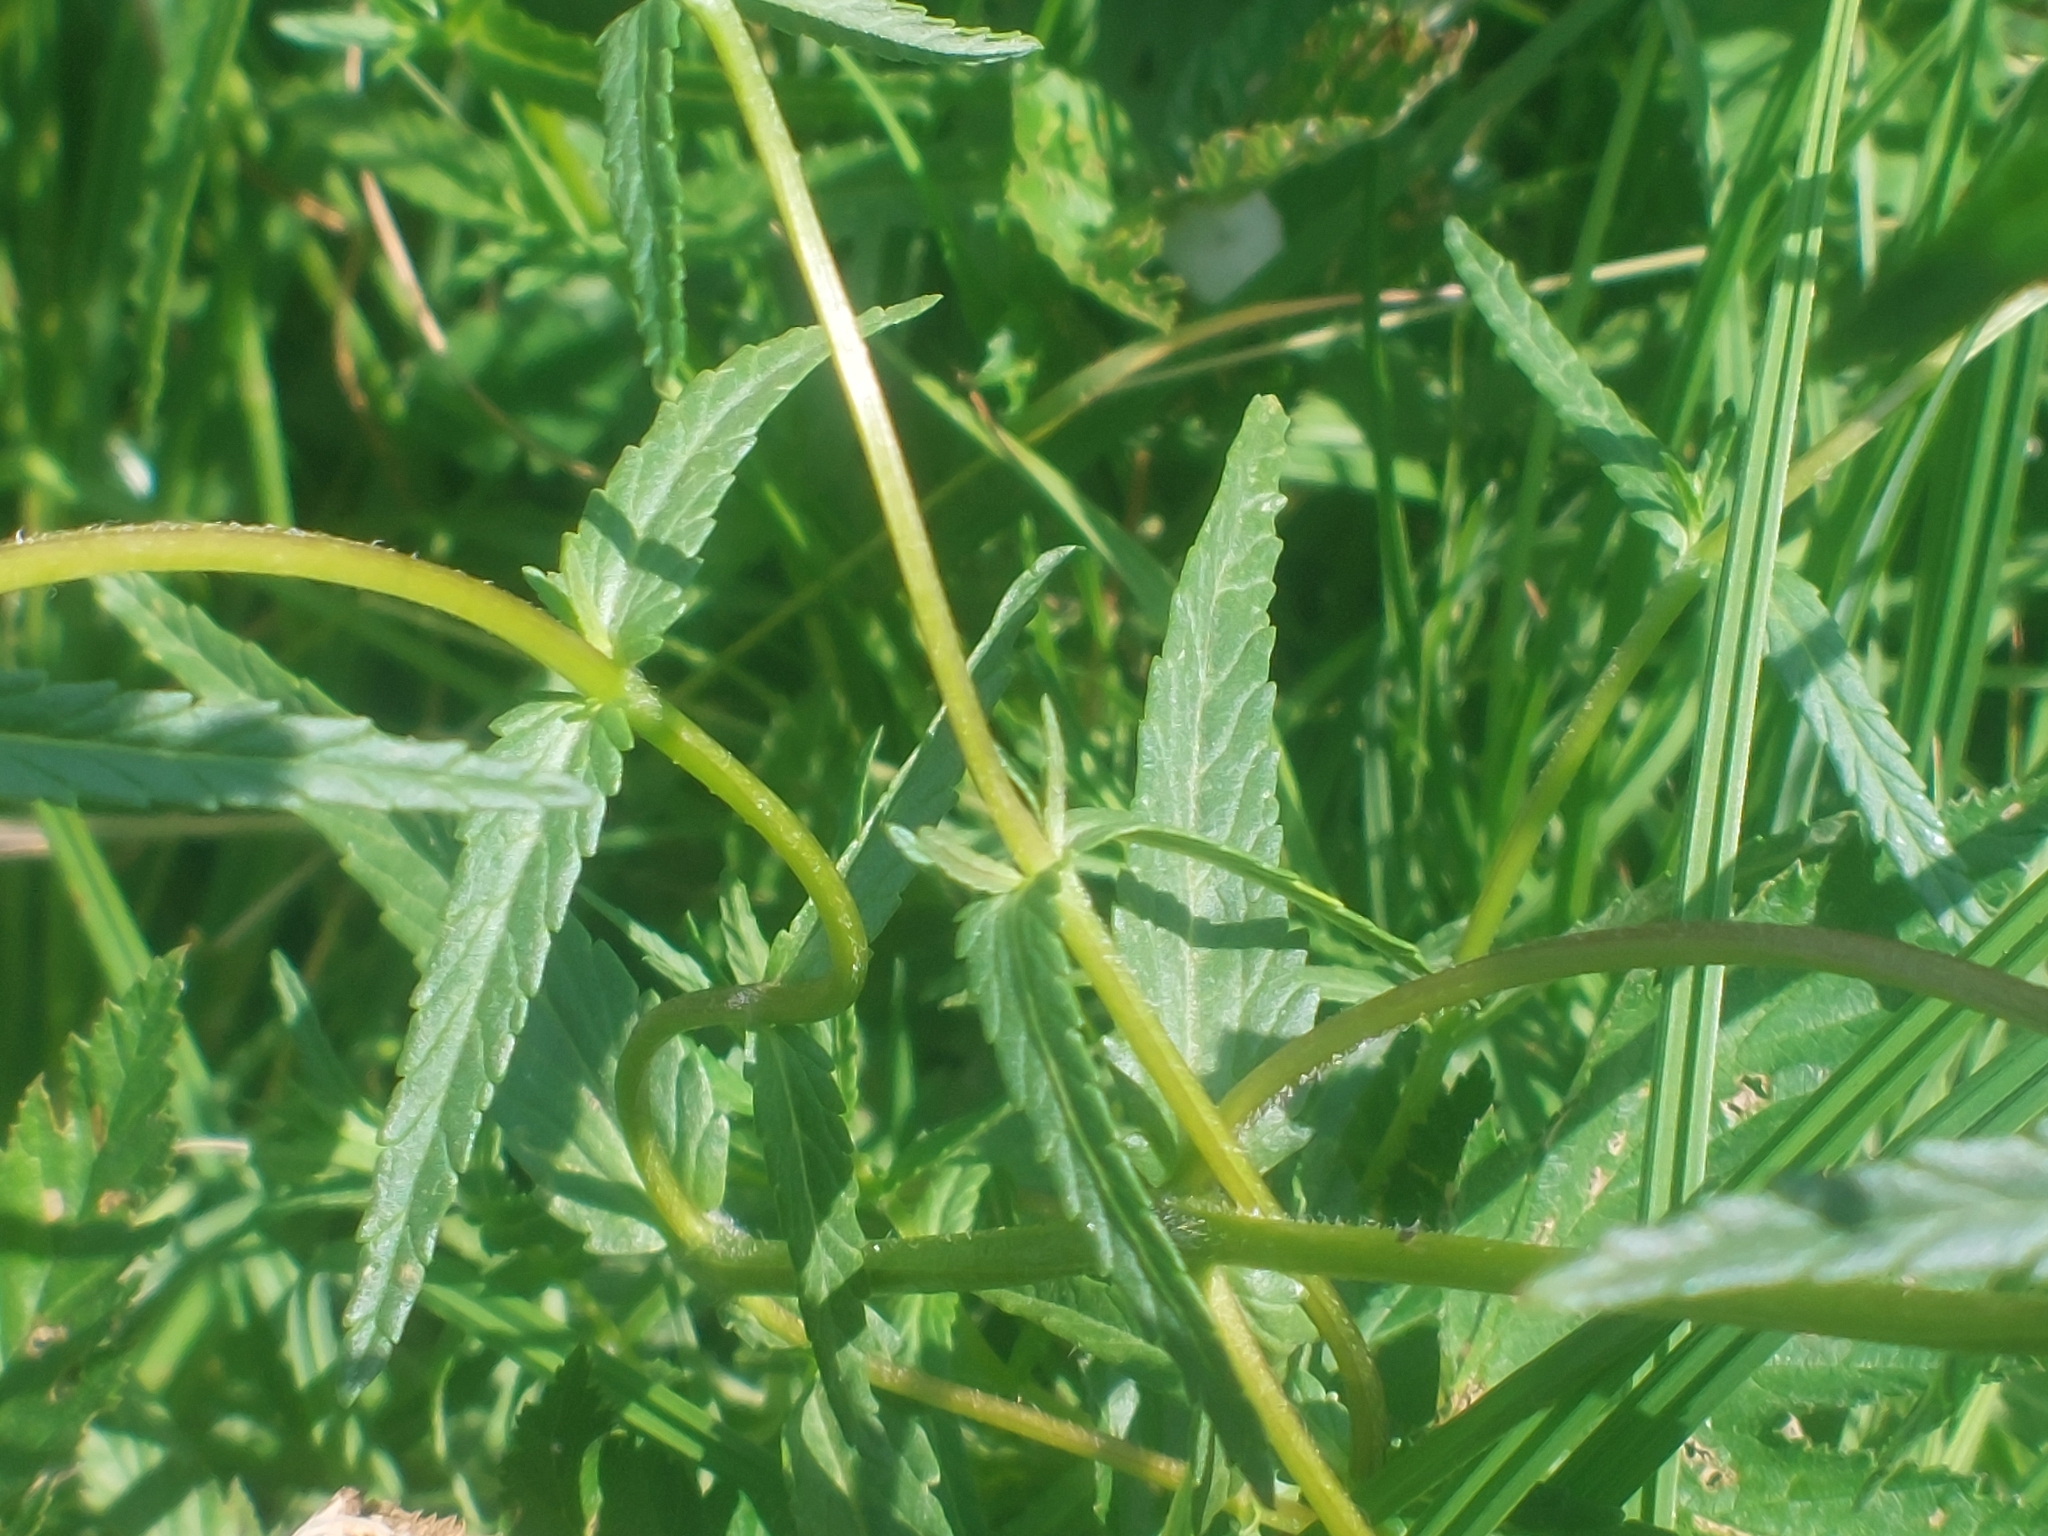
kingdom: Plantae
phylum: Tracheophyta
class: Magnoliopsida
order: Lamiales
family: Orobanchaceae
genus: Rhinanthus
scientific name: Rhinanthus minor
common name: Yellow-rattle
